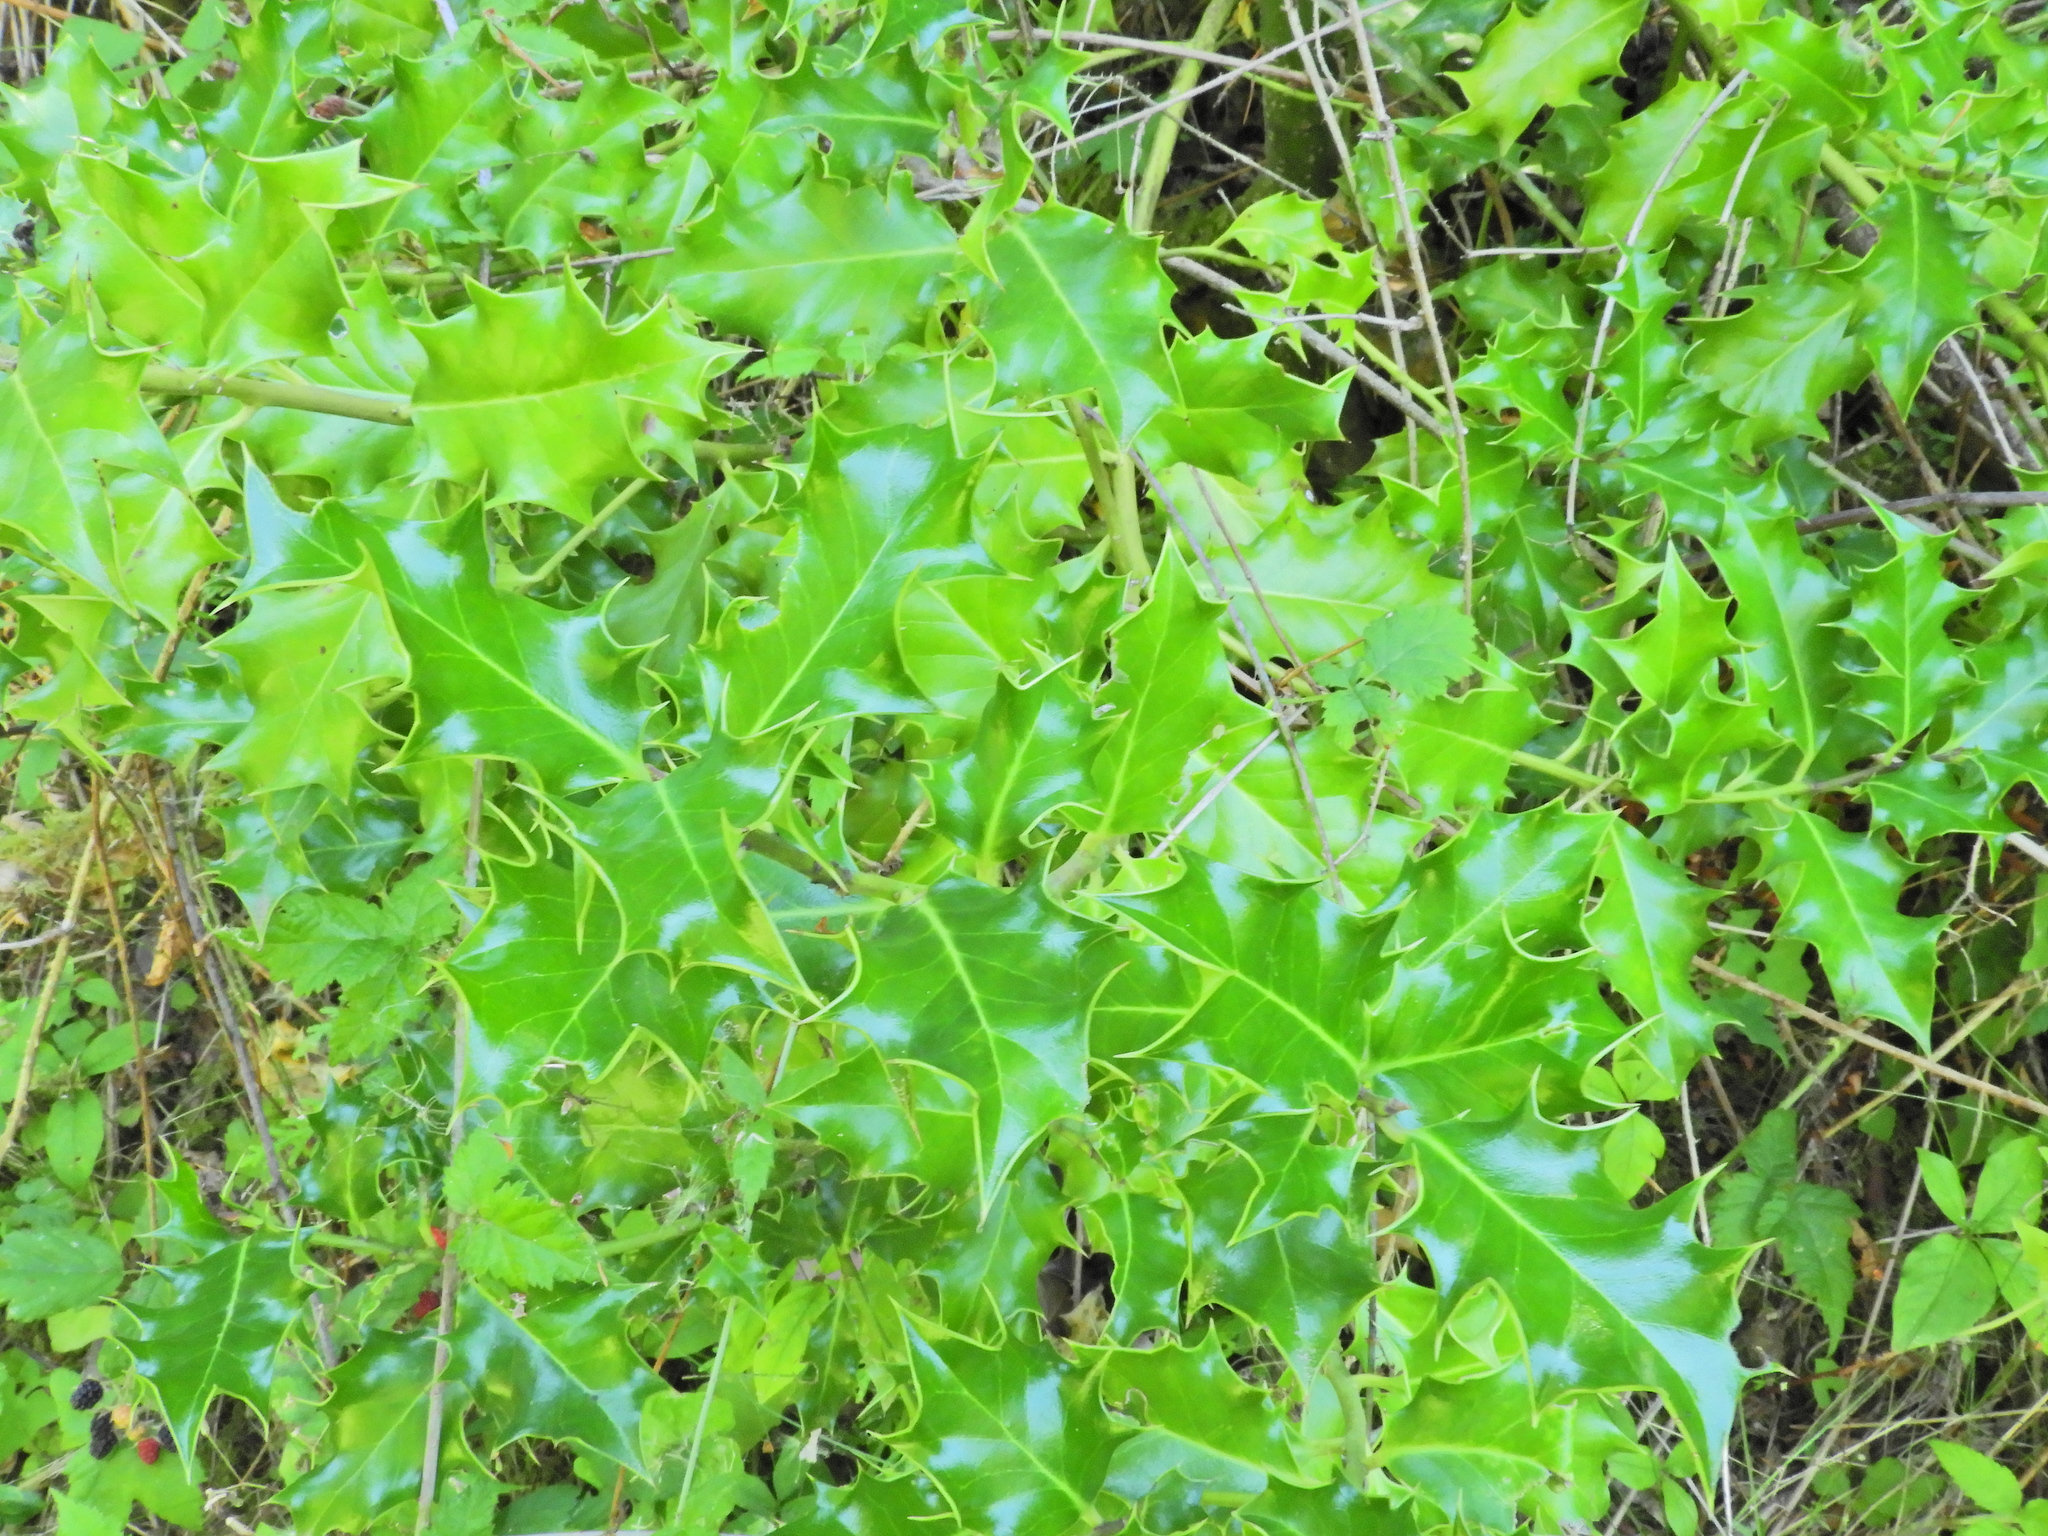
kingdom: Plantae
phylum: Tracheophyta
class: Magnoliopsida
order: Aquifoliales
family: Aquifoliaceae
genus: Ilex
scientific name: Ilex aquifolium
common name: English holly
